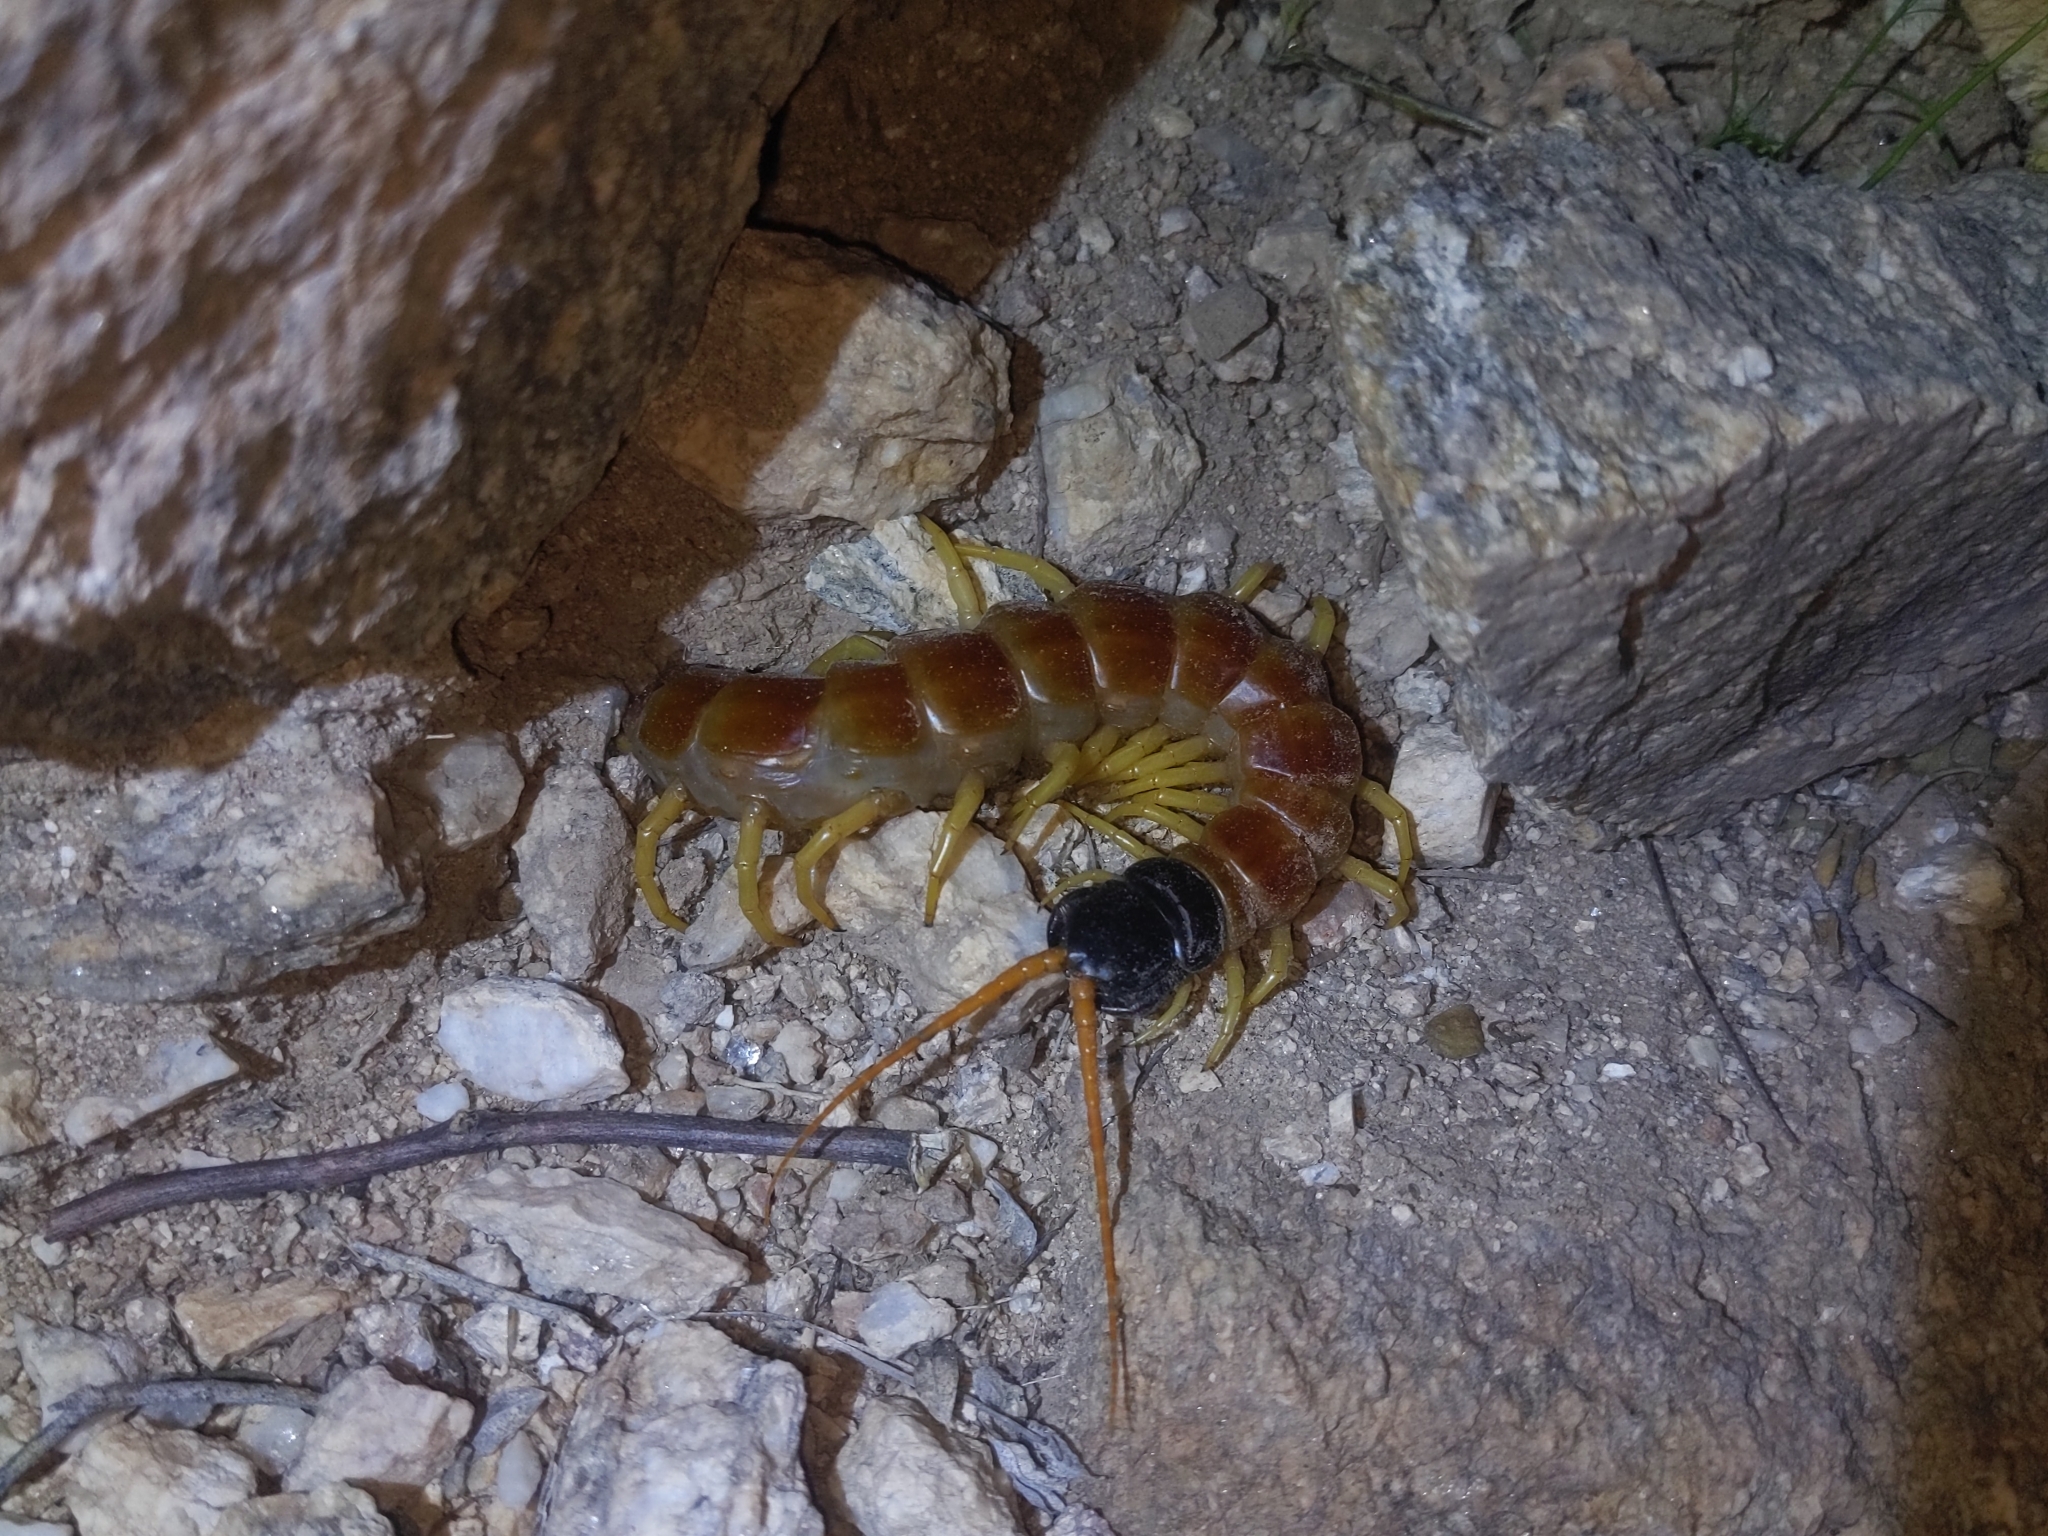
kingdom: Animalia
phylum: Arthropoda
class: Chilopoda
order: Scolopendromorpha
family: Scolopendridae
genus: Scolopendra
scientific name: Scolopendra heros
